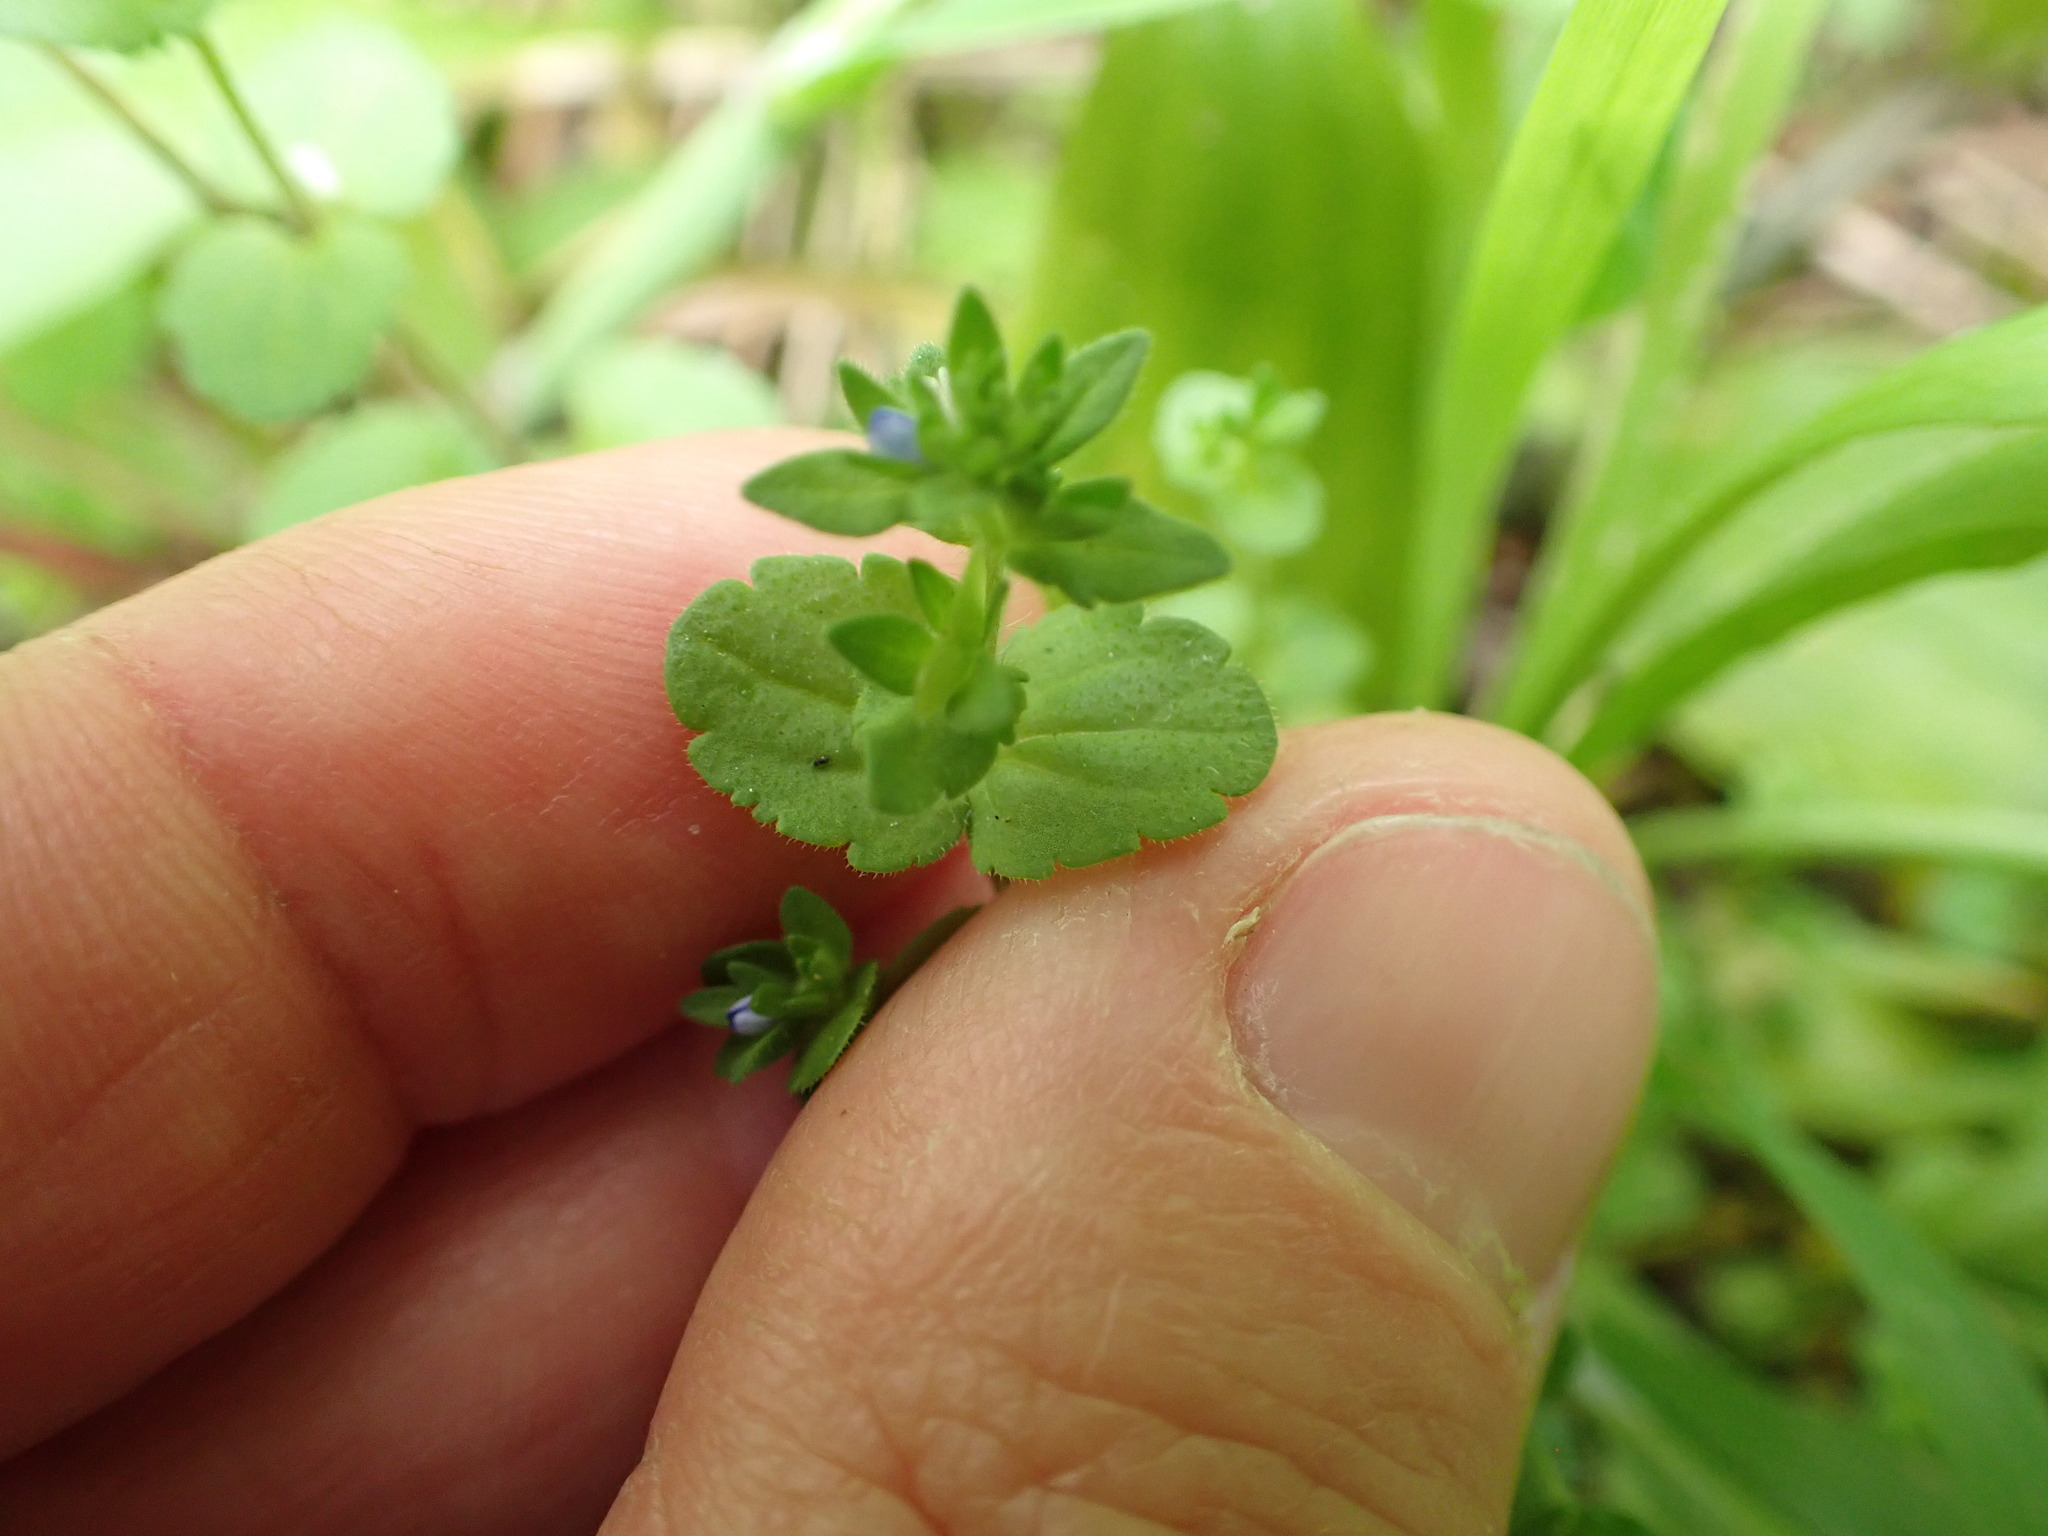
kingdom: Plantae
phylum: Tracheophyta
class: Magnoliopsida
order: Lamiales
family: Plantaginaceae
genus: Veronica
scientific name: Veronica arvensis
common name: Corn speedwell
